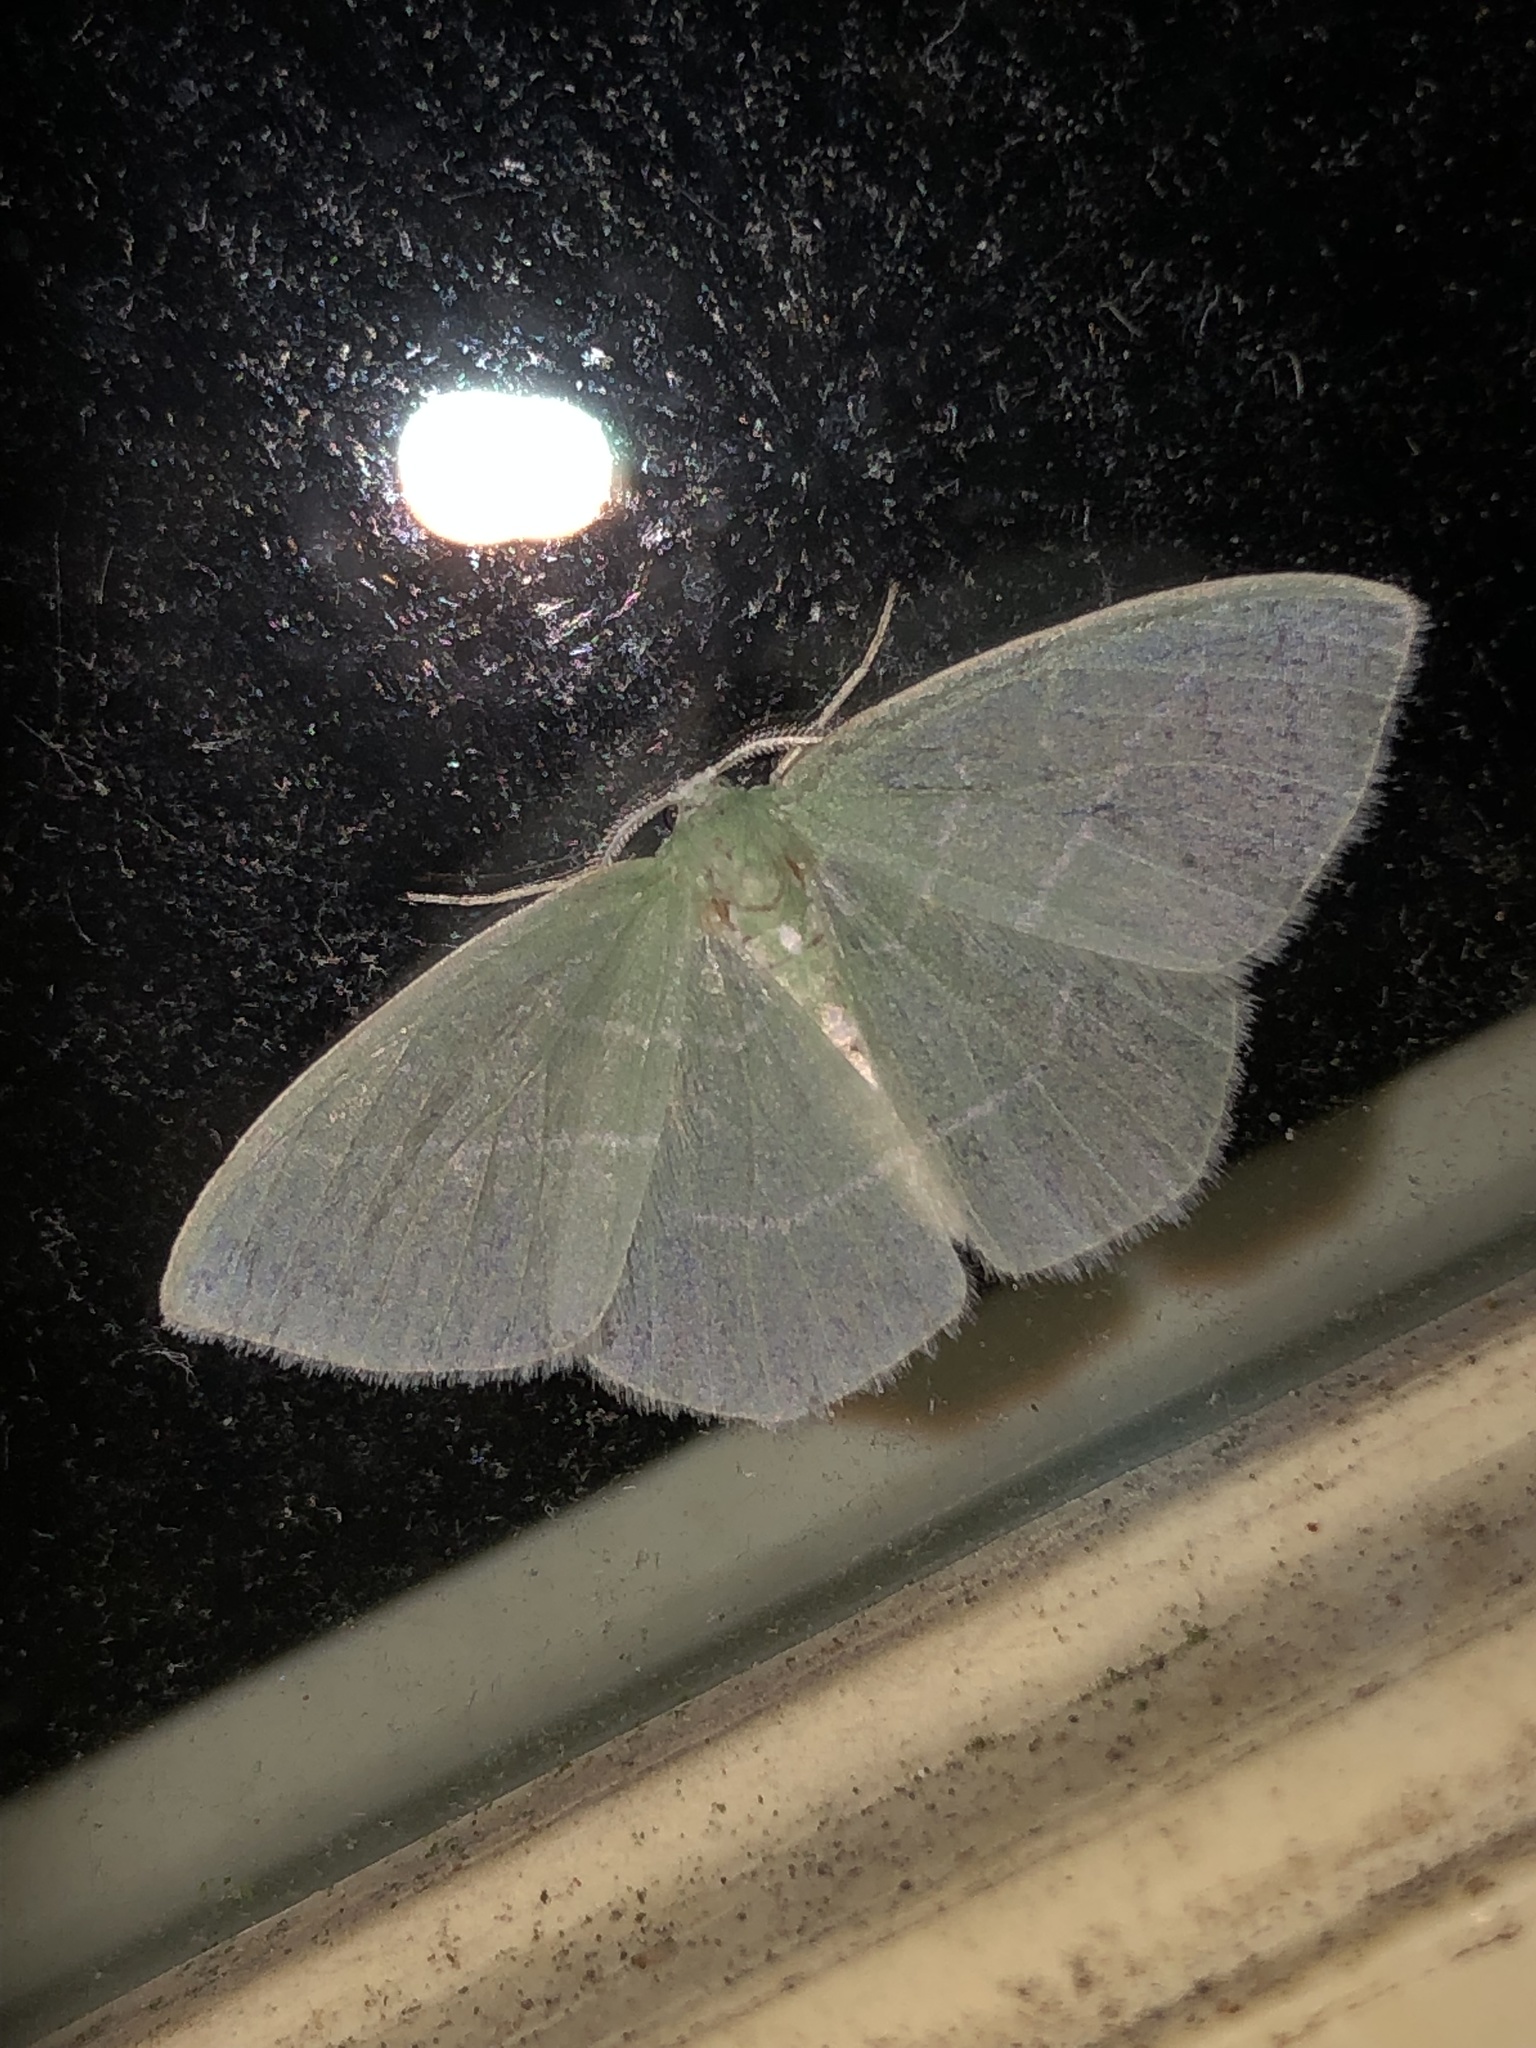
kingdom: Animalia
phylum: Arthropoda
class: Insecta
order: Lepidoptera
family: Geometridae
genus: Nemoria
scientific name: Nemoria mimosaria
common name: White-fringed emerald
